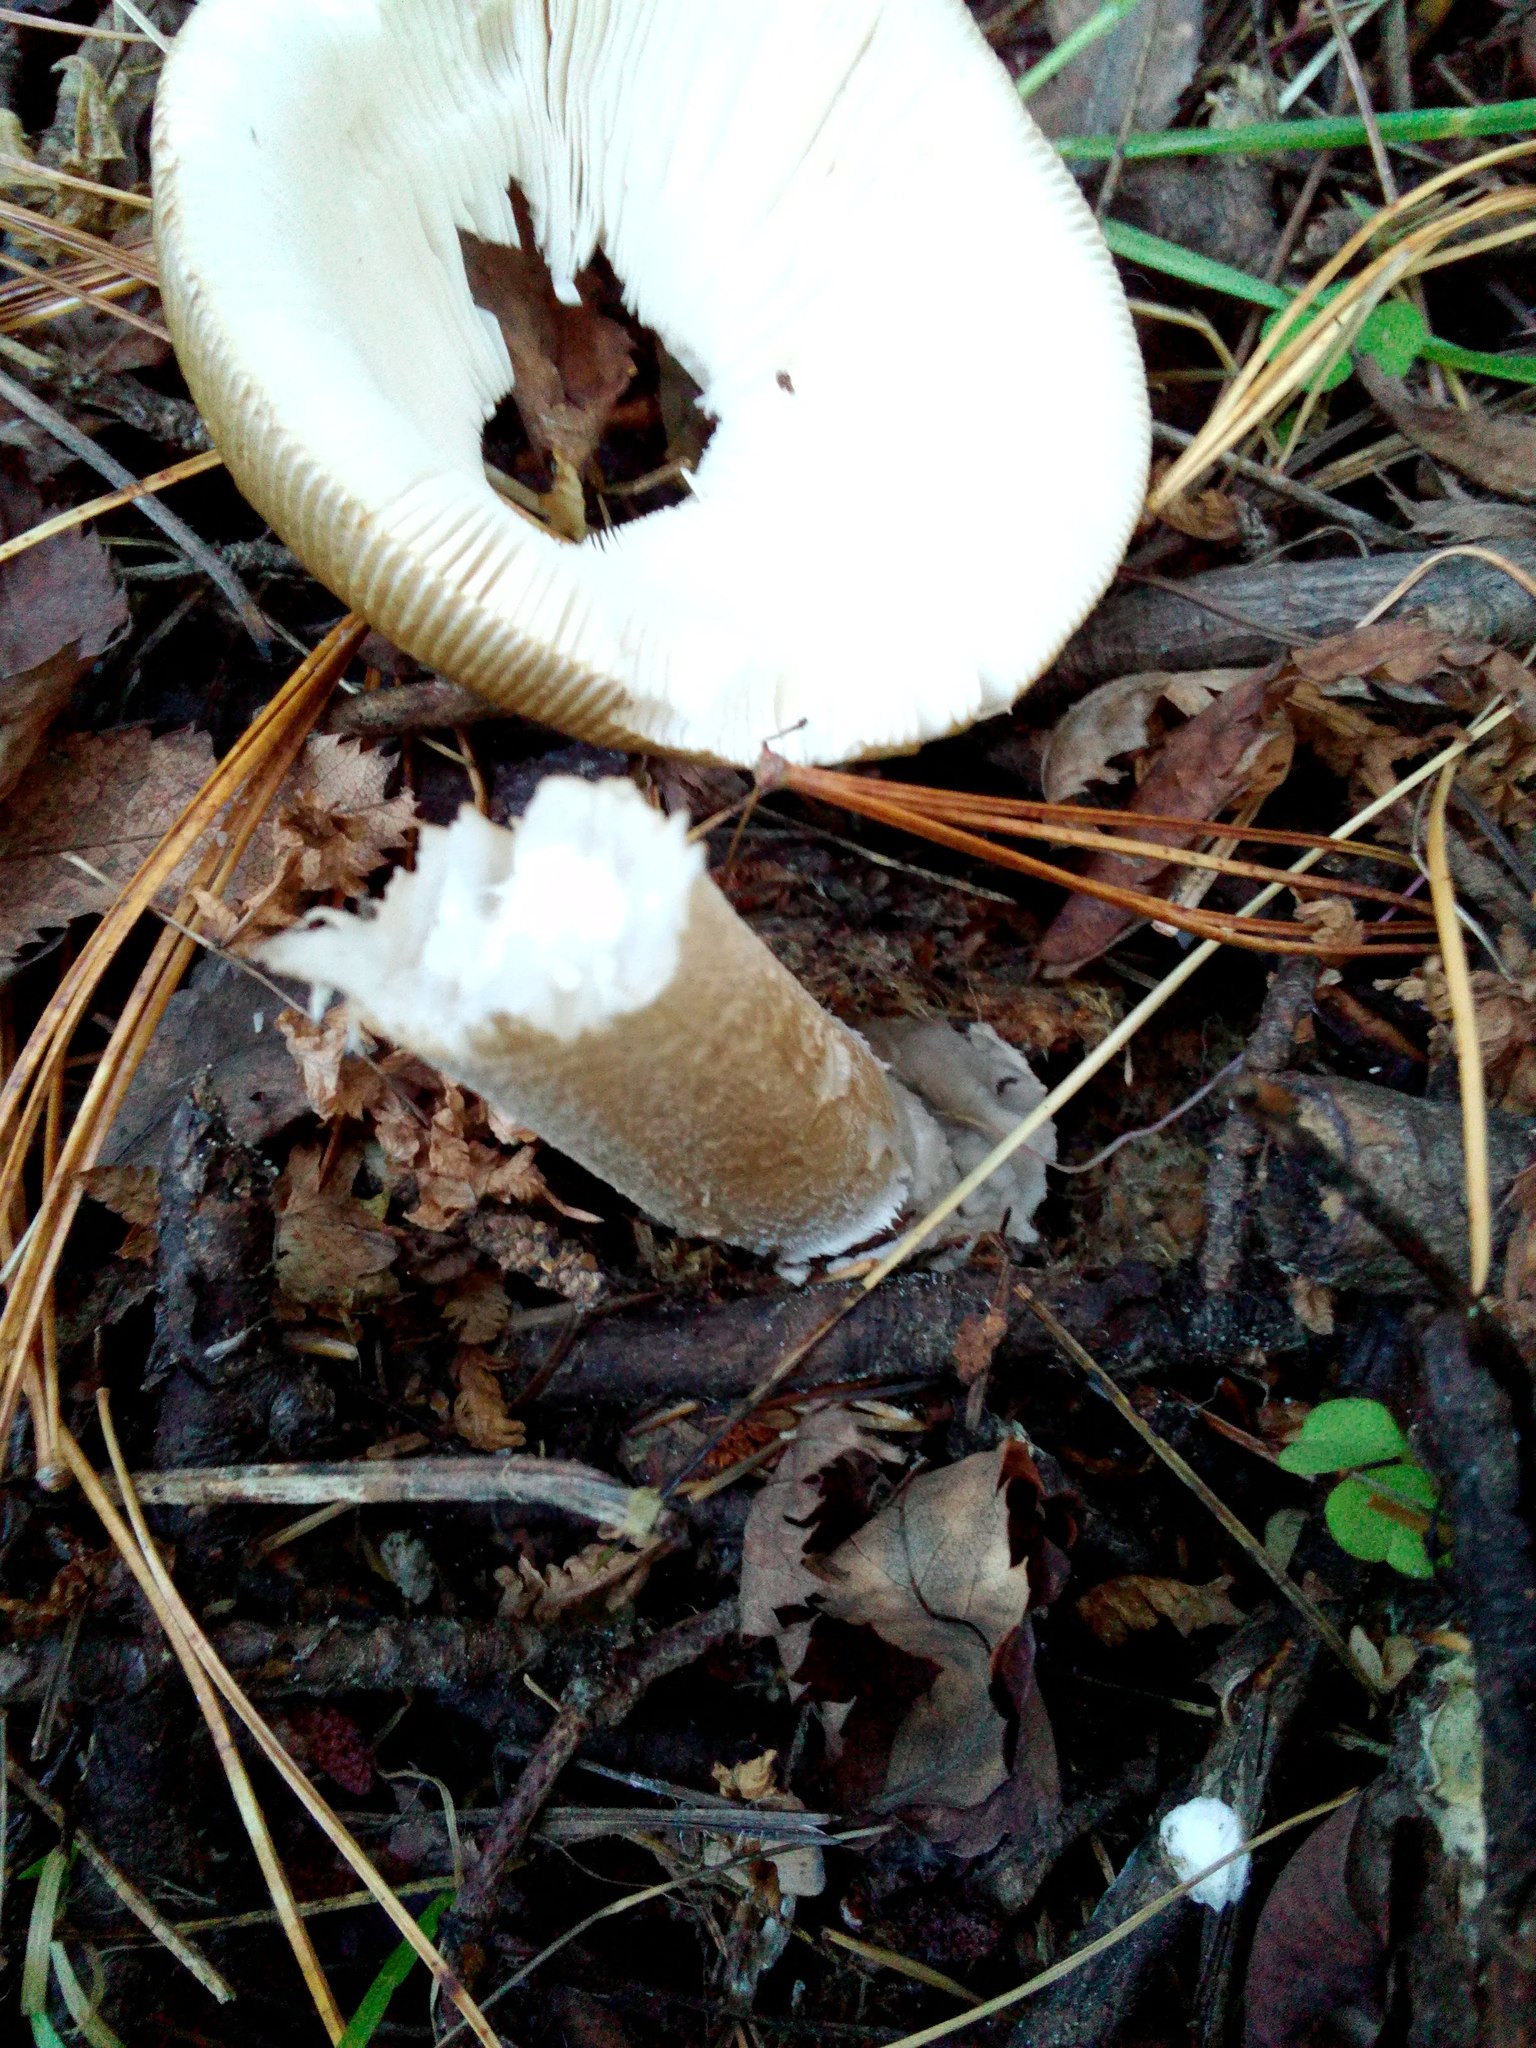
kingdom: Fungi
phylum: Basidiomycota
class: Agaricomycetes
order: Agaricales
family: Amanitaceae
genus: Amanita
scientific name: Amanita fulva
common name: Tawny grisette
